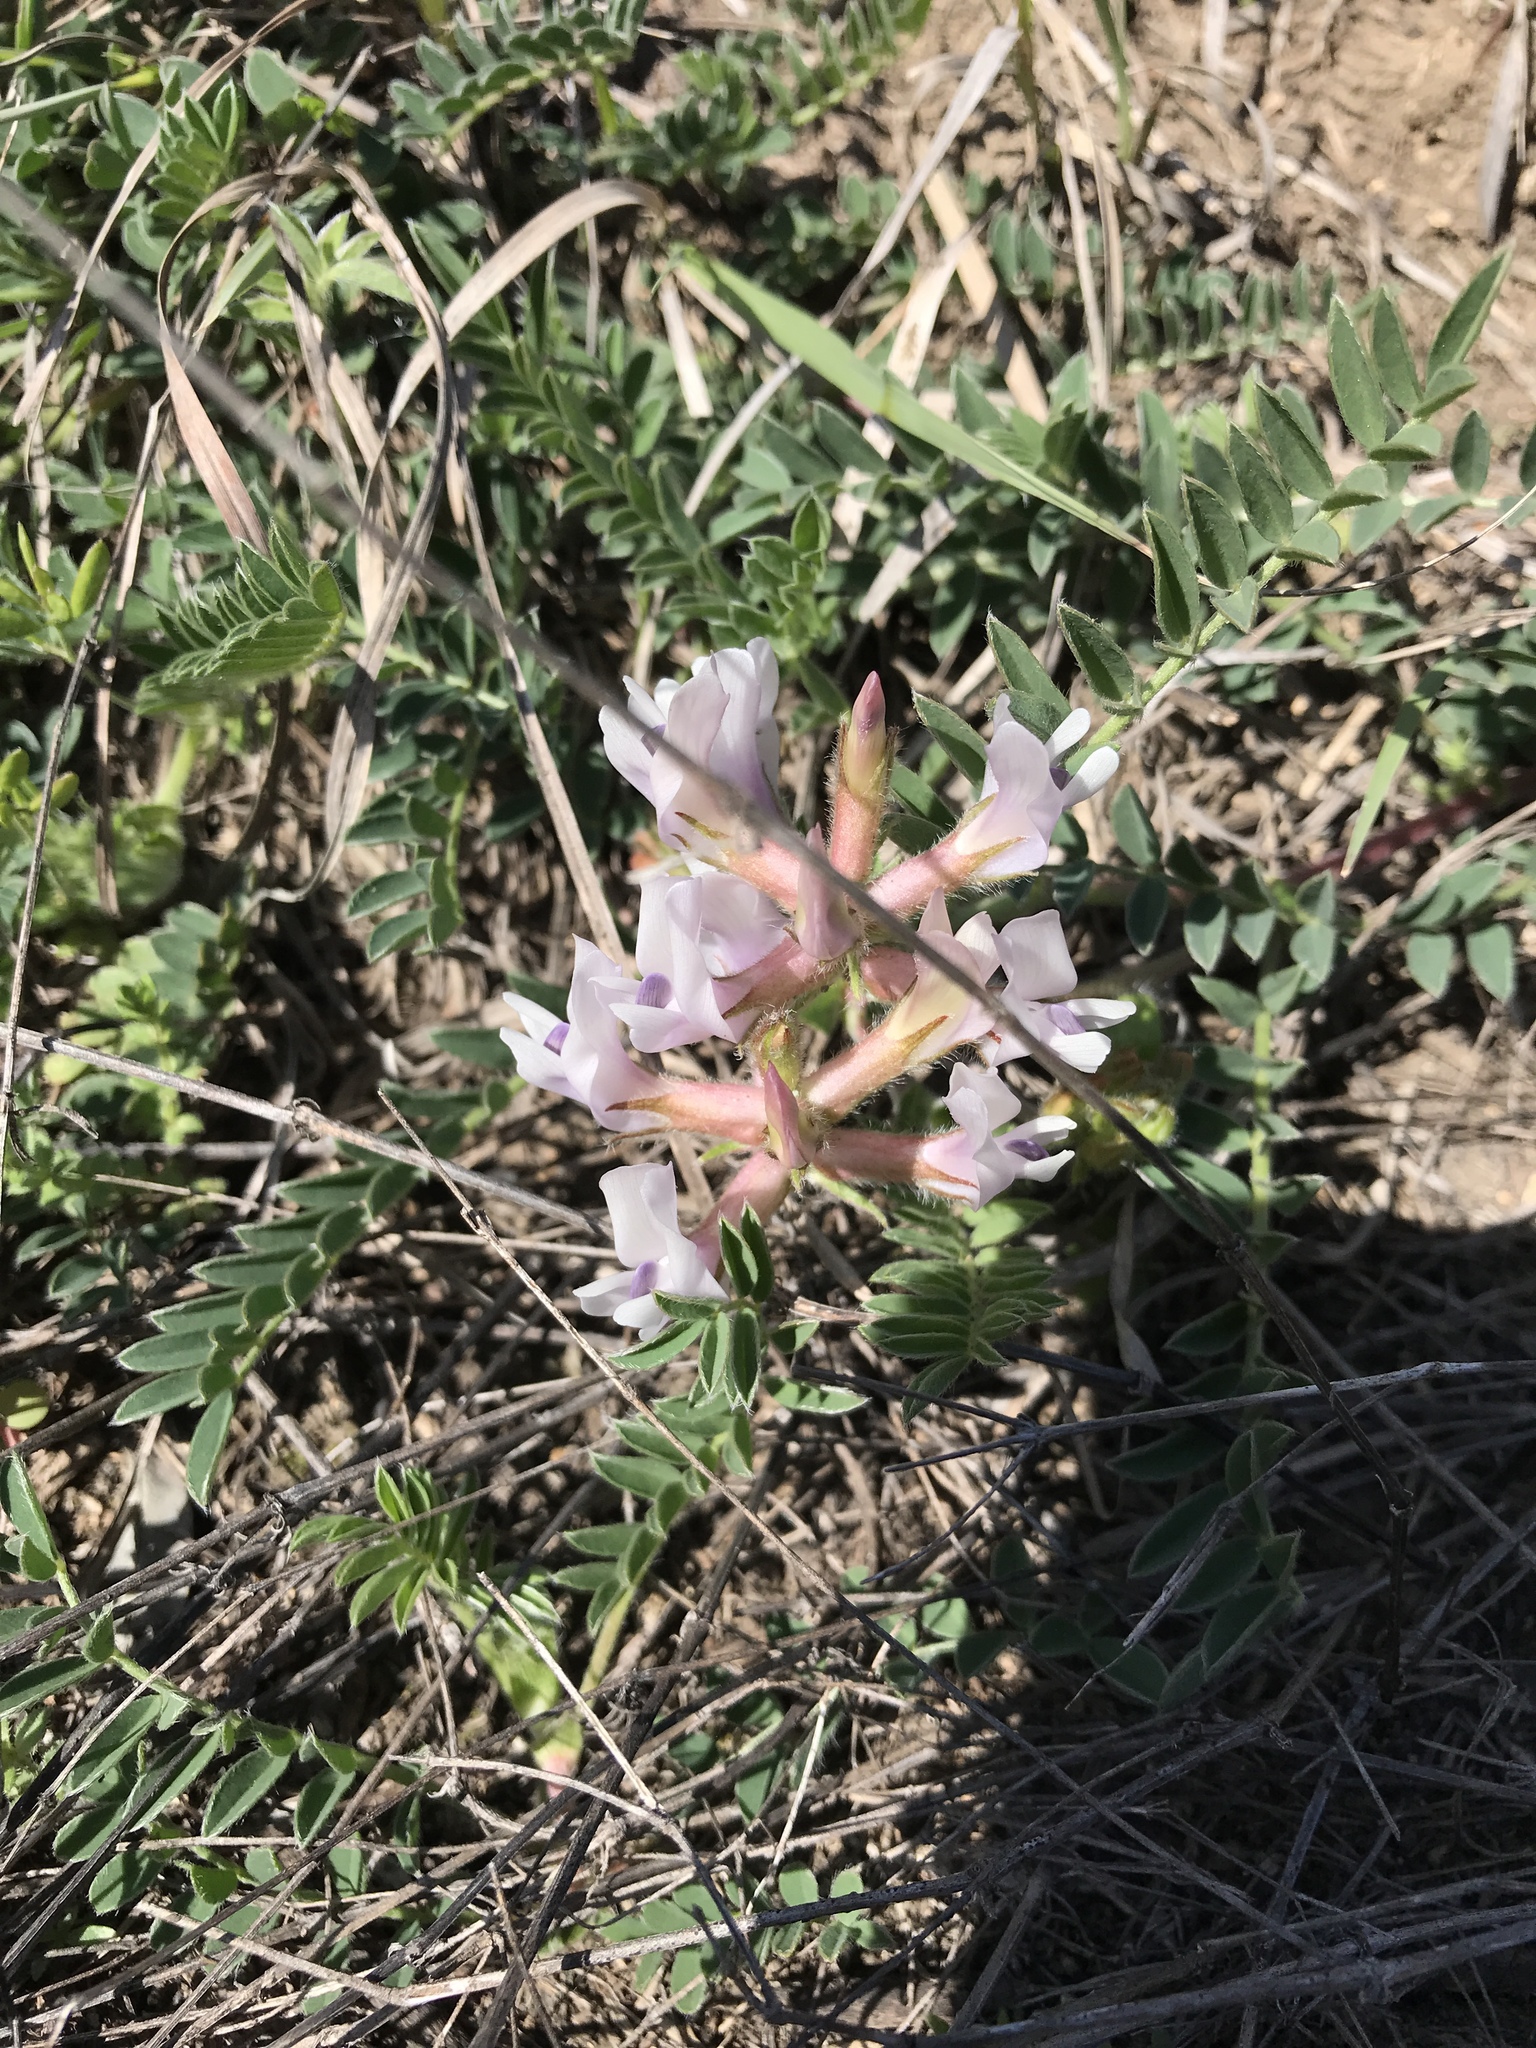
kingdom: Plantae
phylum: Tracheophyta
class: Magnoliopsida
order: Fabales
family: Fabaceae
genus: Astragalus
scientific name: Astragalus crassicarpus
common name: Ground-plum milk-vetch
